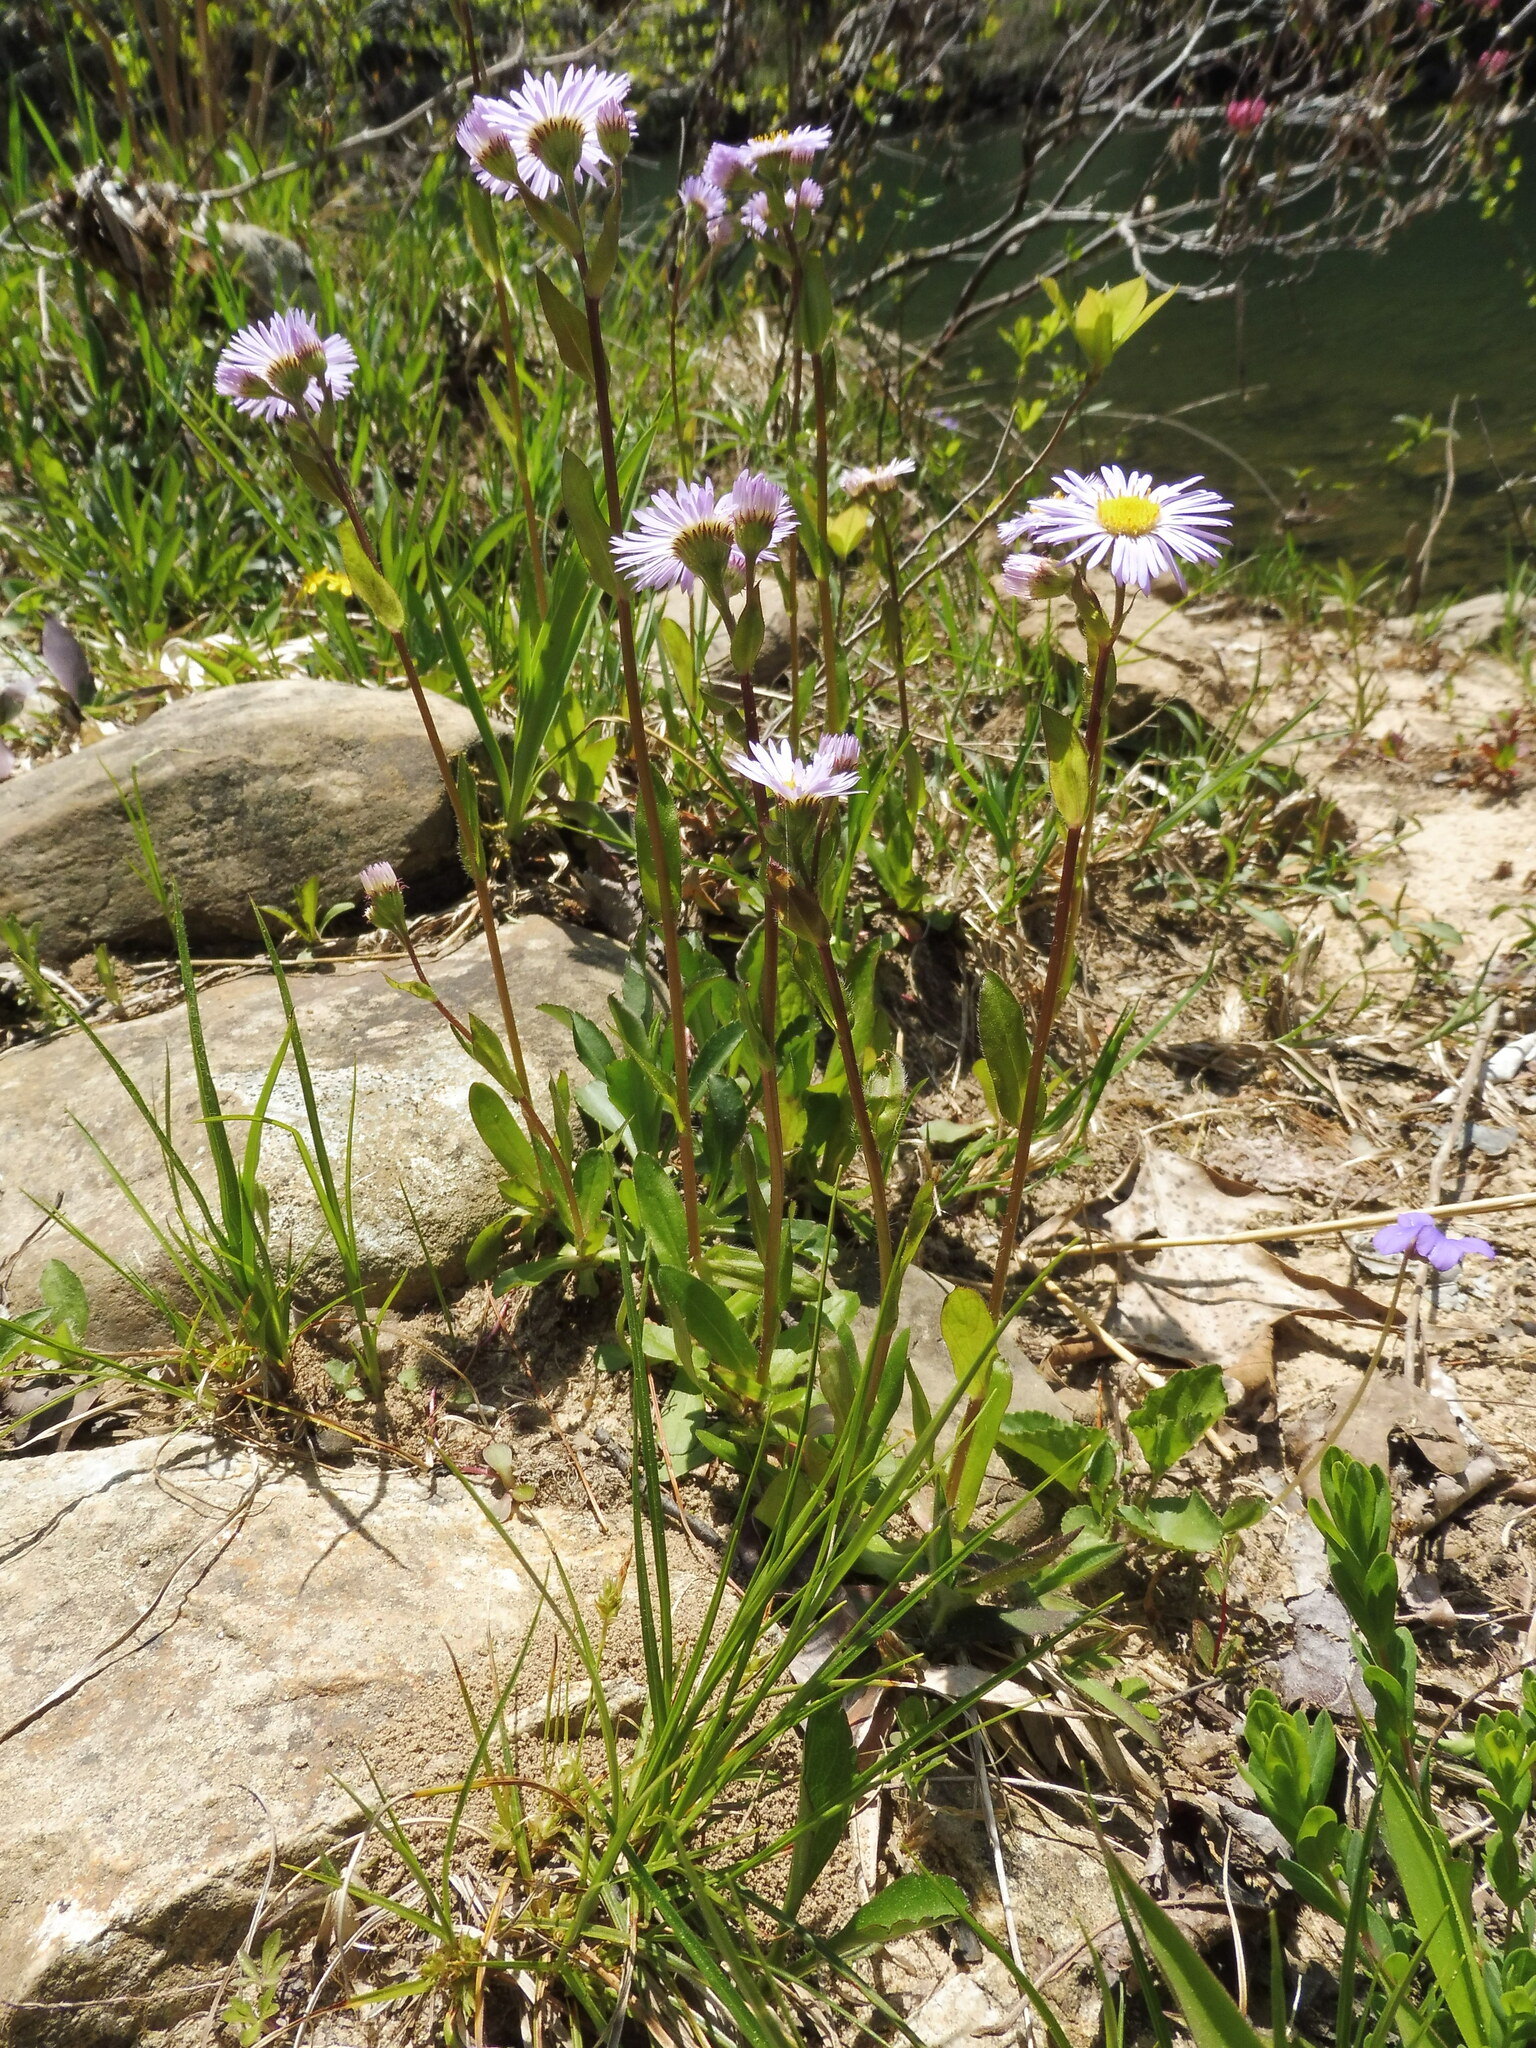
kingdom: Plantae
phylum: Tracheophyta
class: Magnoliopsida
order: Asterales
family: Asteraceae
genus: Erigeron
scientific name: Erigeron pulchellus
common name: Hairy fleabane
